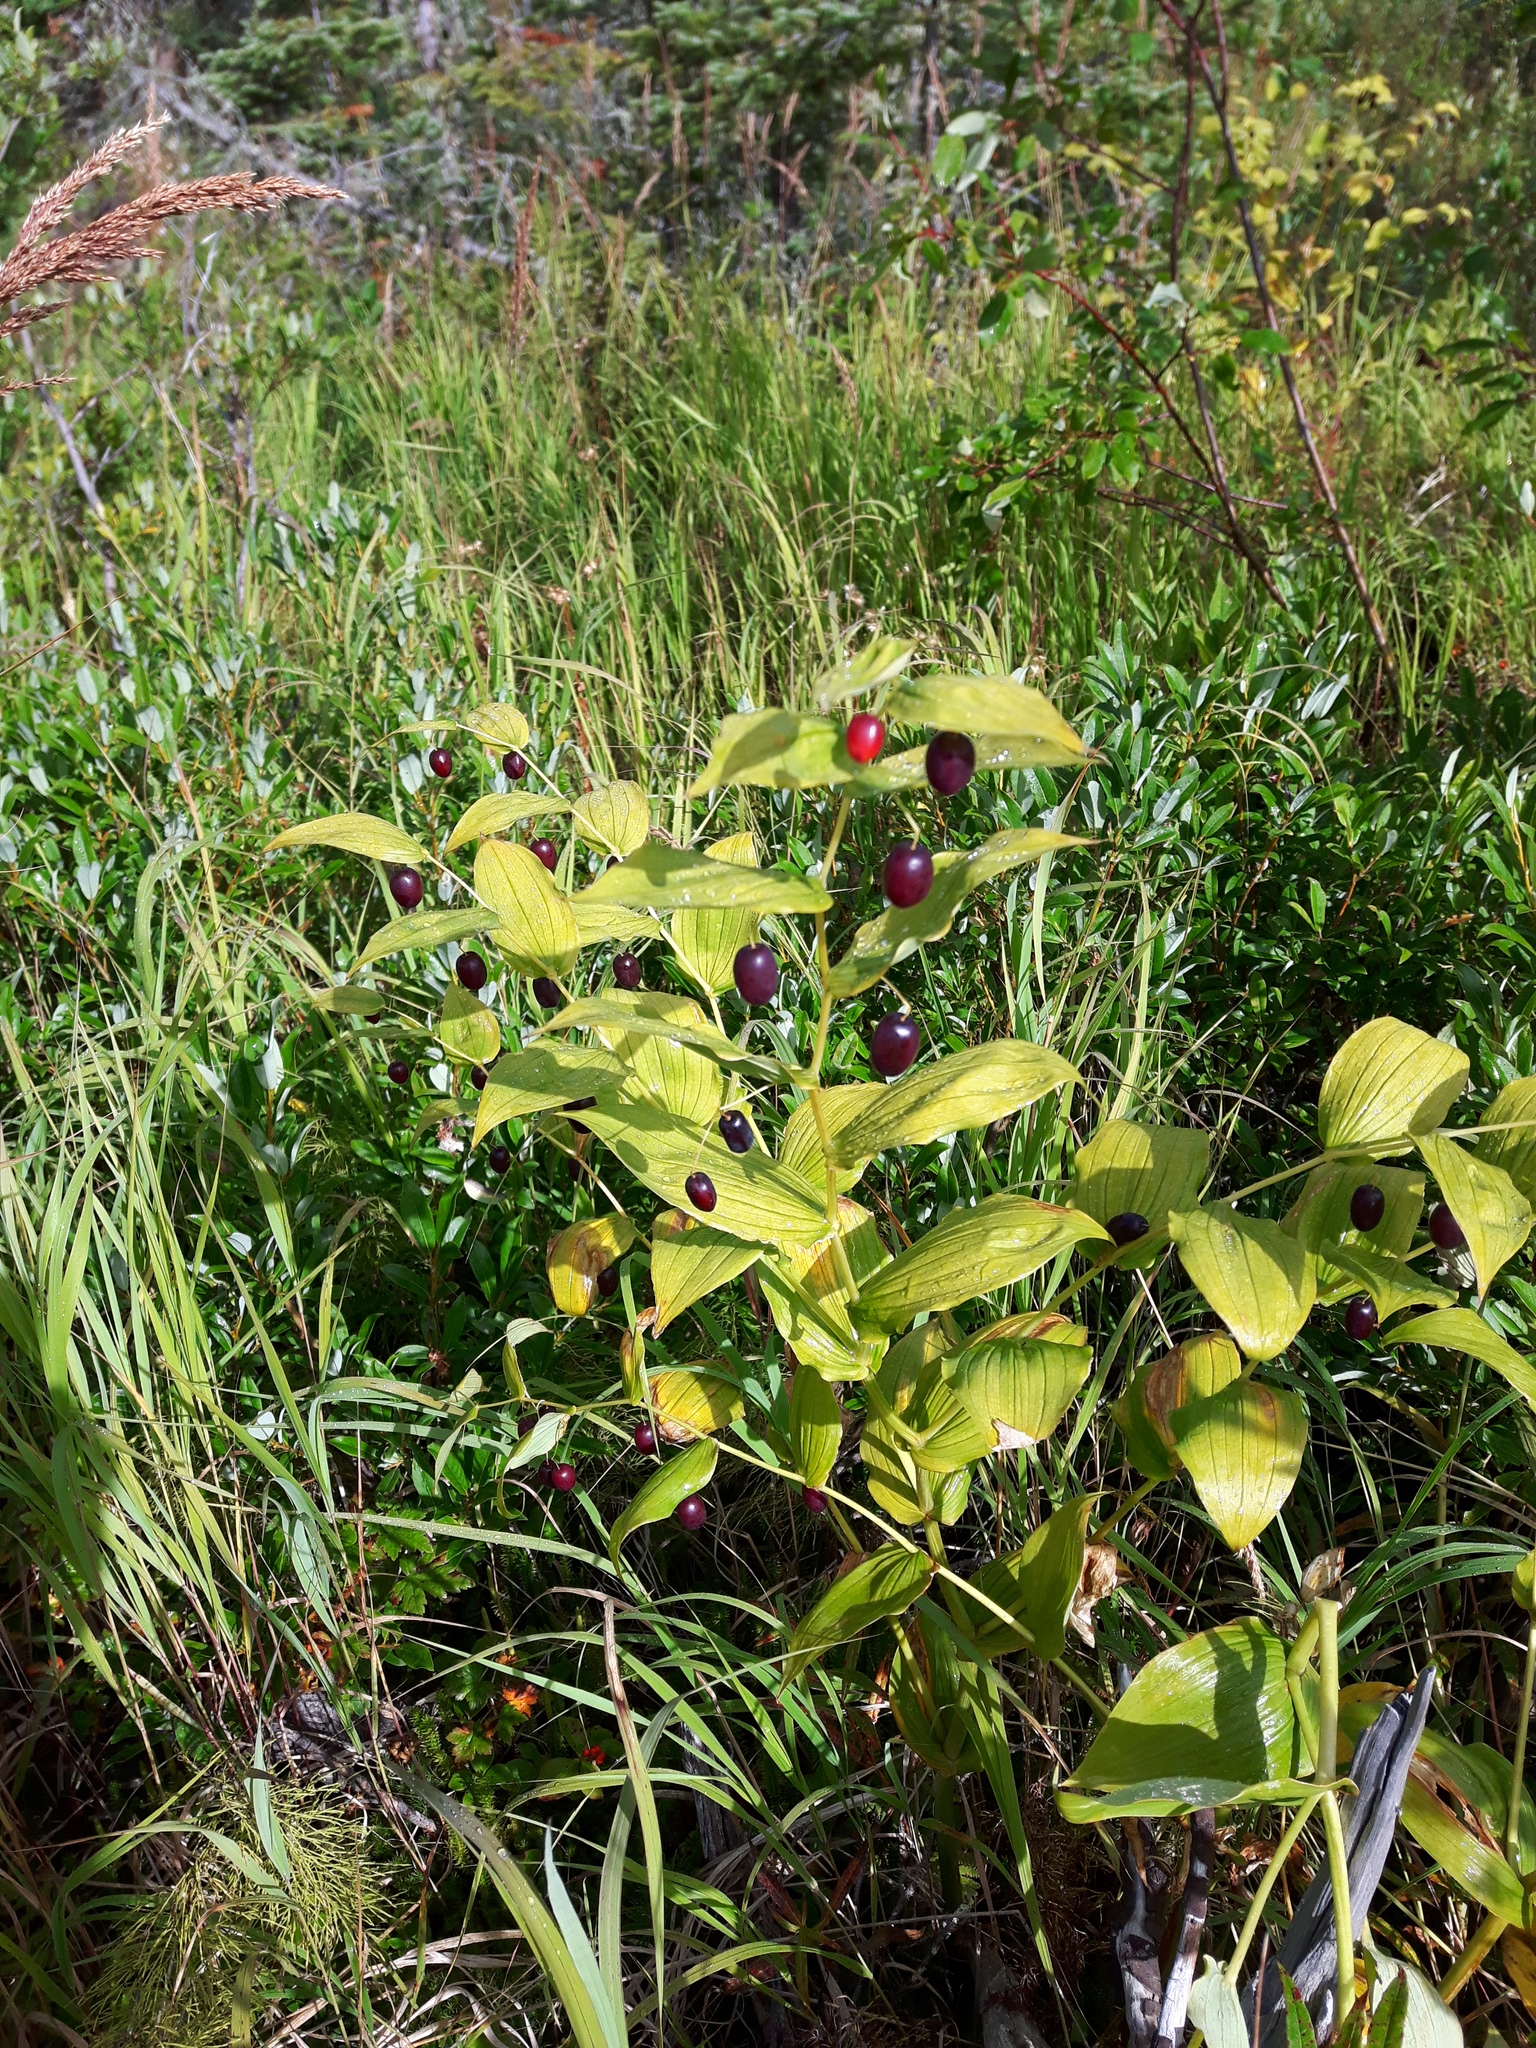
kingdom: Plantae
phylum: Tracheophyta
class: Liliopsida
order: Liliales
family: Liliaceae
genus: Streptopus
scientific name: Streptopus amplexifolius
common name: Clasp twisted stalk
